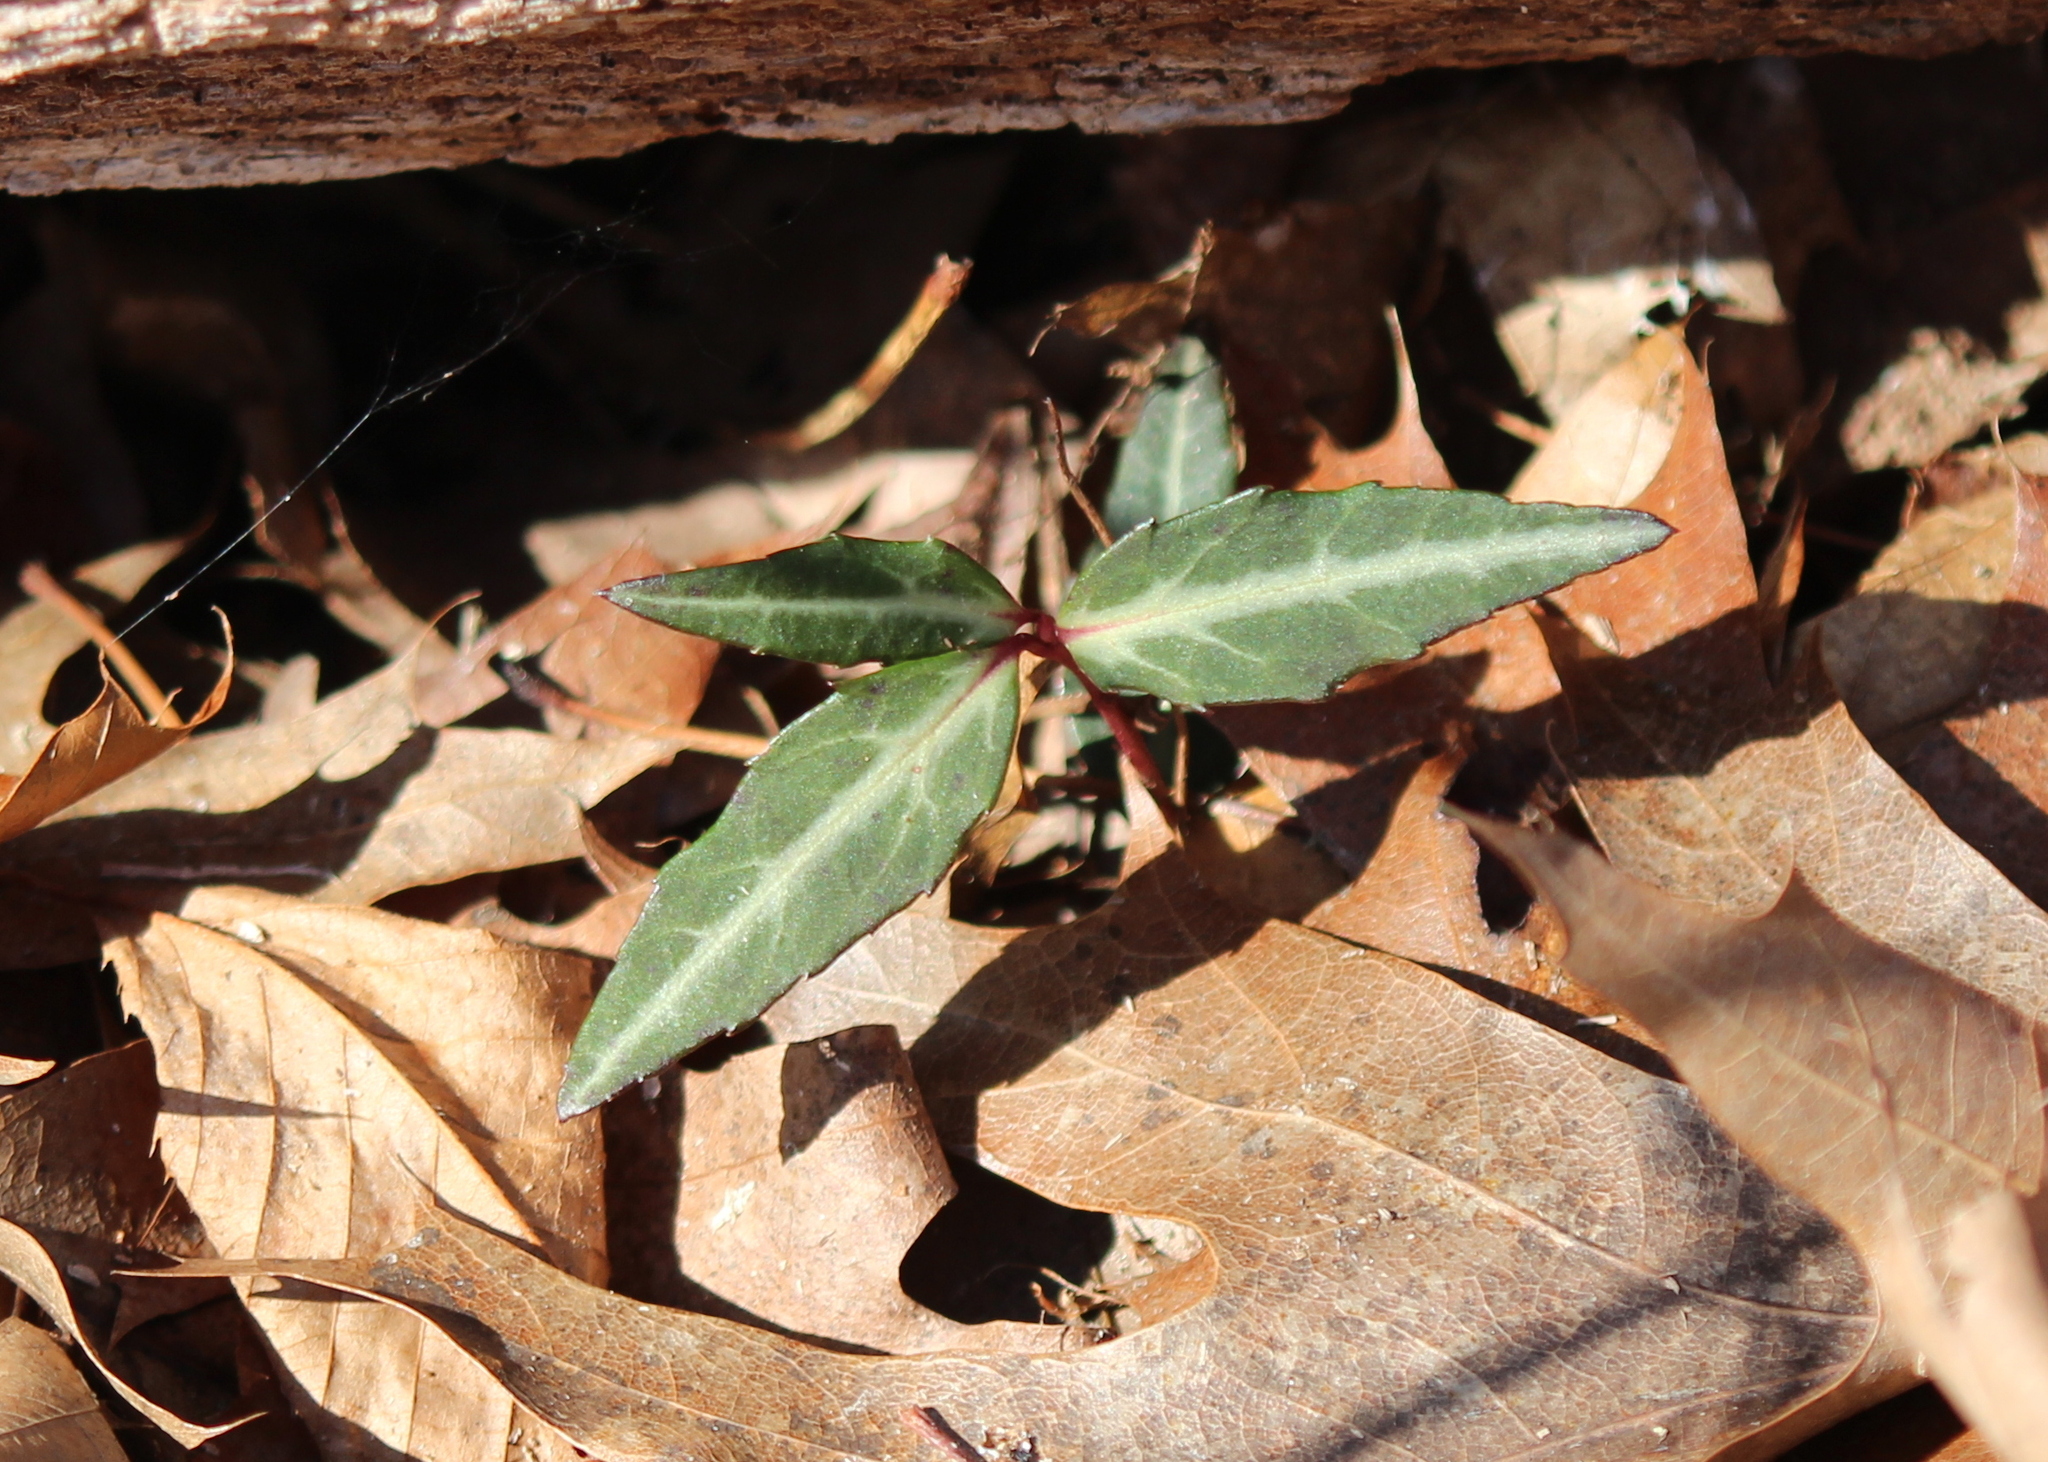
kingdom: Plantae
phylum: Tracheophyta
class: Magnoliopsida
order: Ericales
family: Ericaceae
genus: Chimaphila
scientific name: Chimaphila maculata
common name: Spotted pipsissewa
